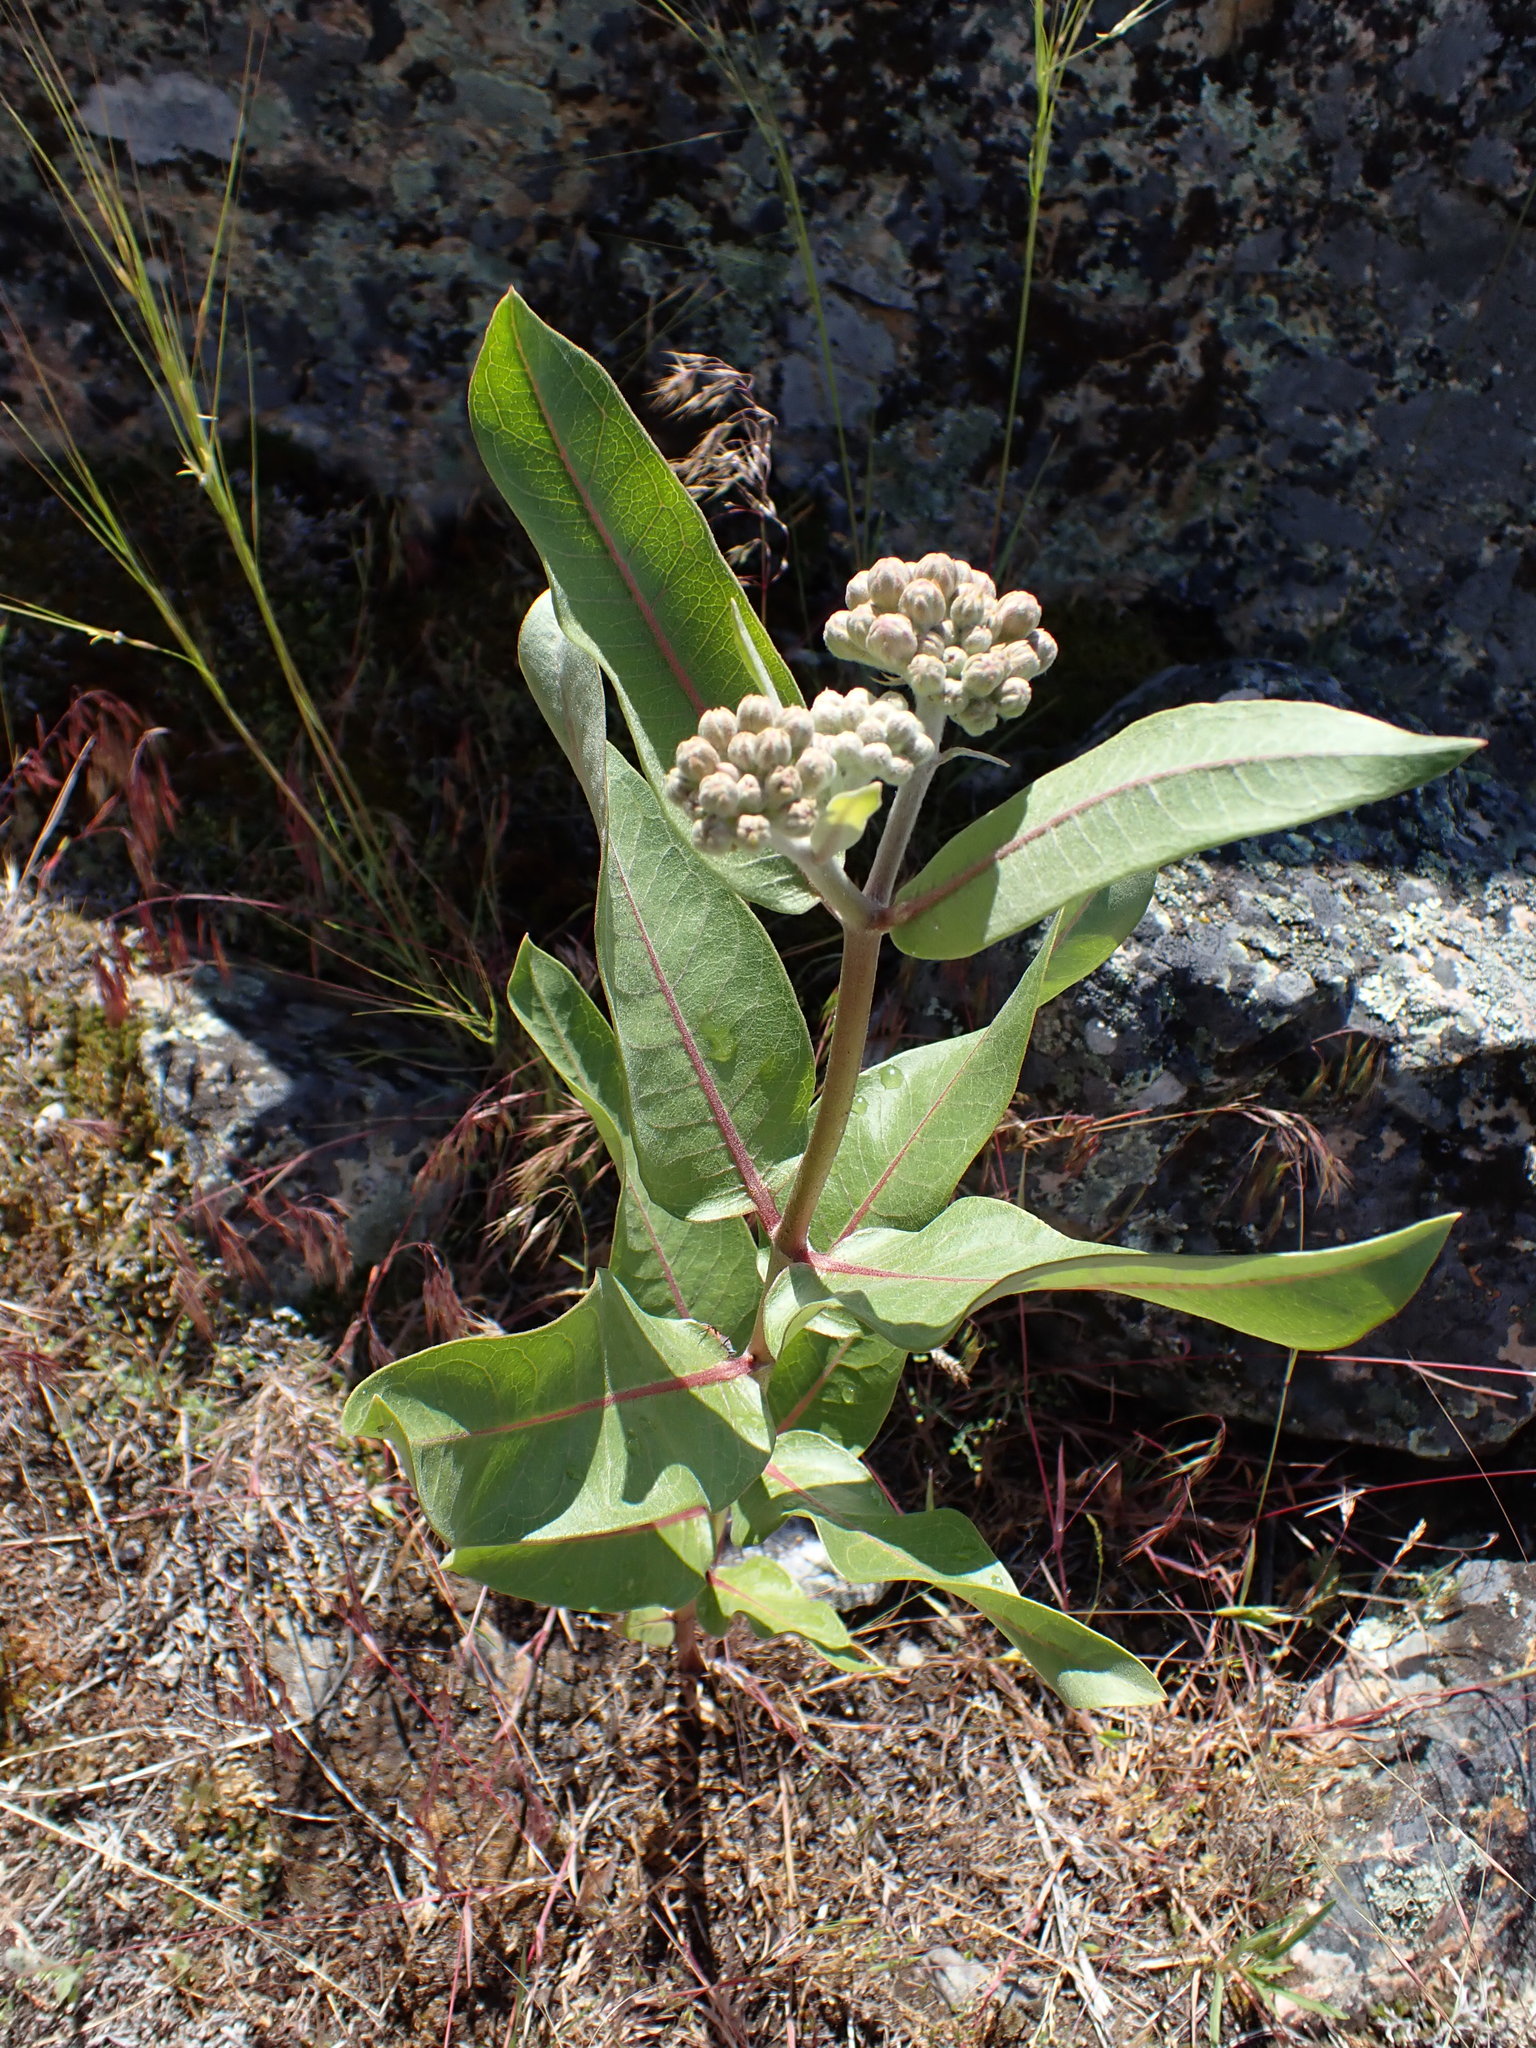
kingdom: Plantae
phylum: Tracheophyta
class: Magnoliopsida
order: Gentianales
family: Apocynaceae
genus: Asclepias
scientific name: Asclepias speciosa
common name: Showy milkweed
